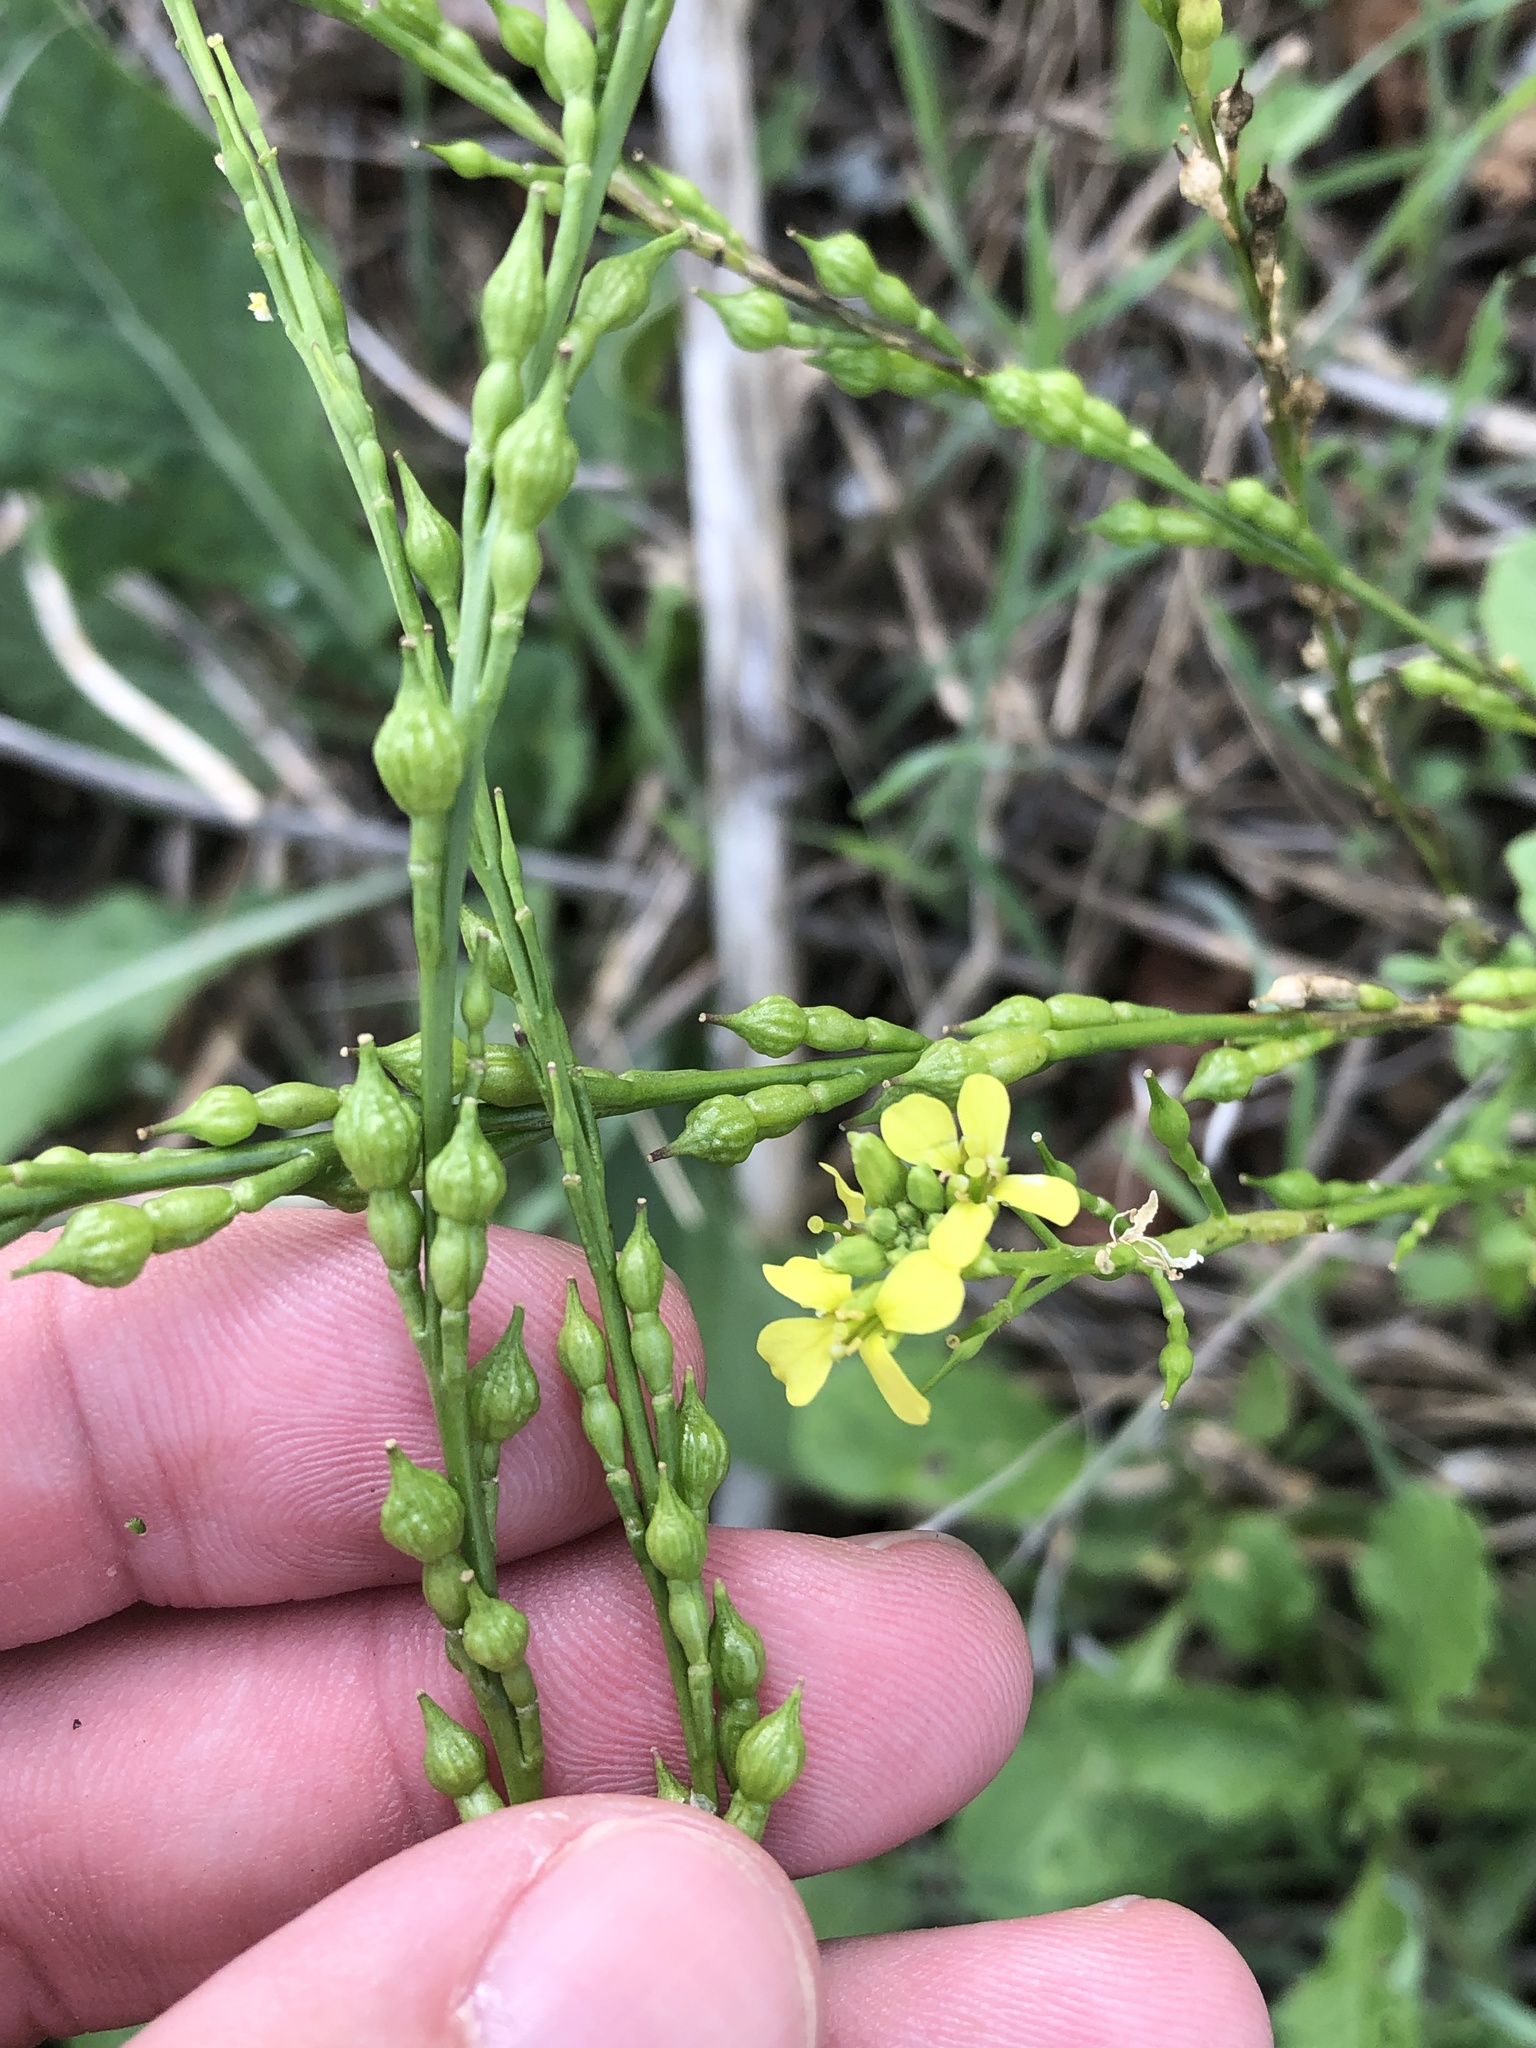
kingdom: Plantae
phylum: Tracheophyta
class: Magnoliopsida
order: Brassicales
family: Brassicaceae
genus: Rapistrum
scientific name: Rapistrum rugosum
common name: Annual bastardcabbage
